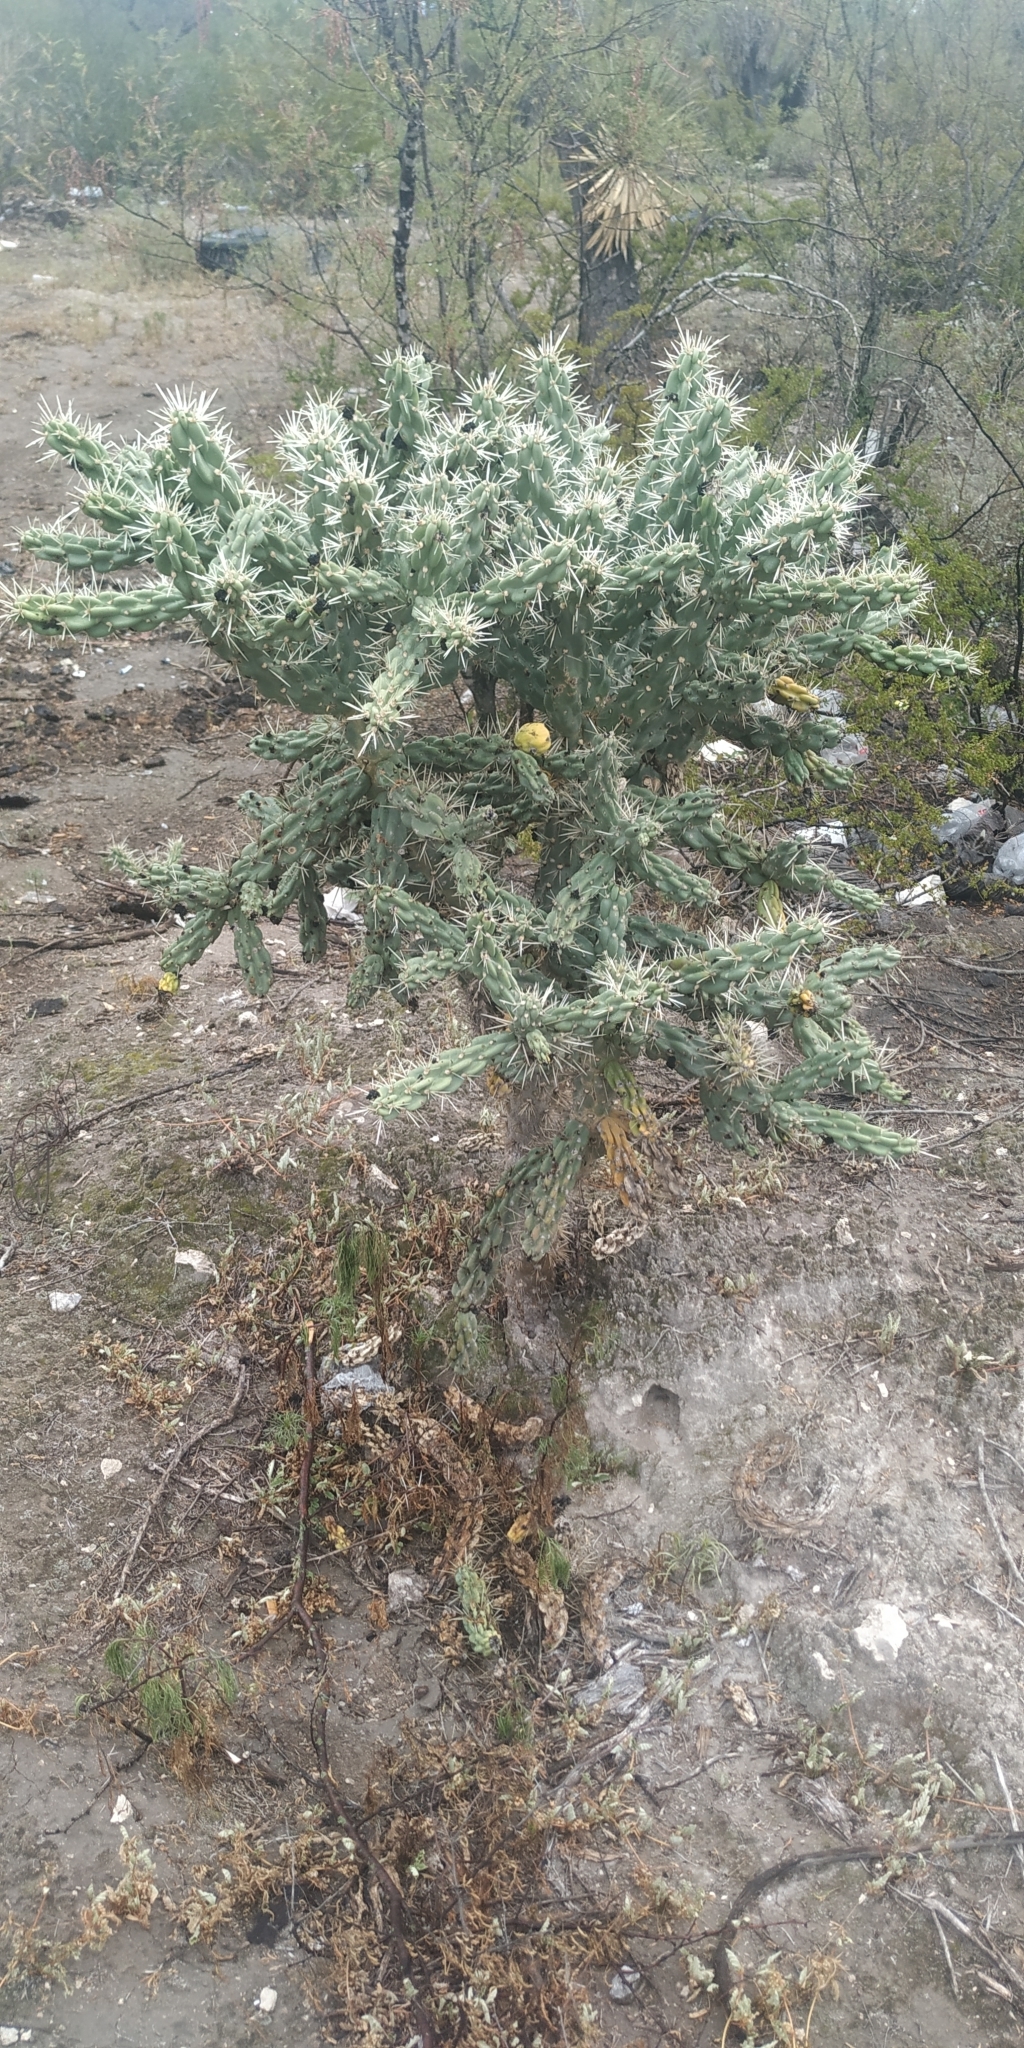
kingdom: Plantae
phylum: Tracheophyta
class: Magnoliopsida
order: Caryophyllales
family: Cactaceae
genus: Cylindropuntia
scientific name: Cylindropuntia imbricata
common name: Candelabrum cactus
